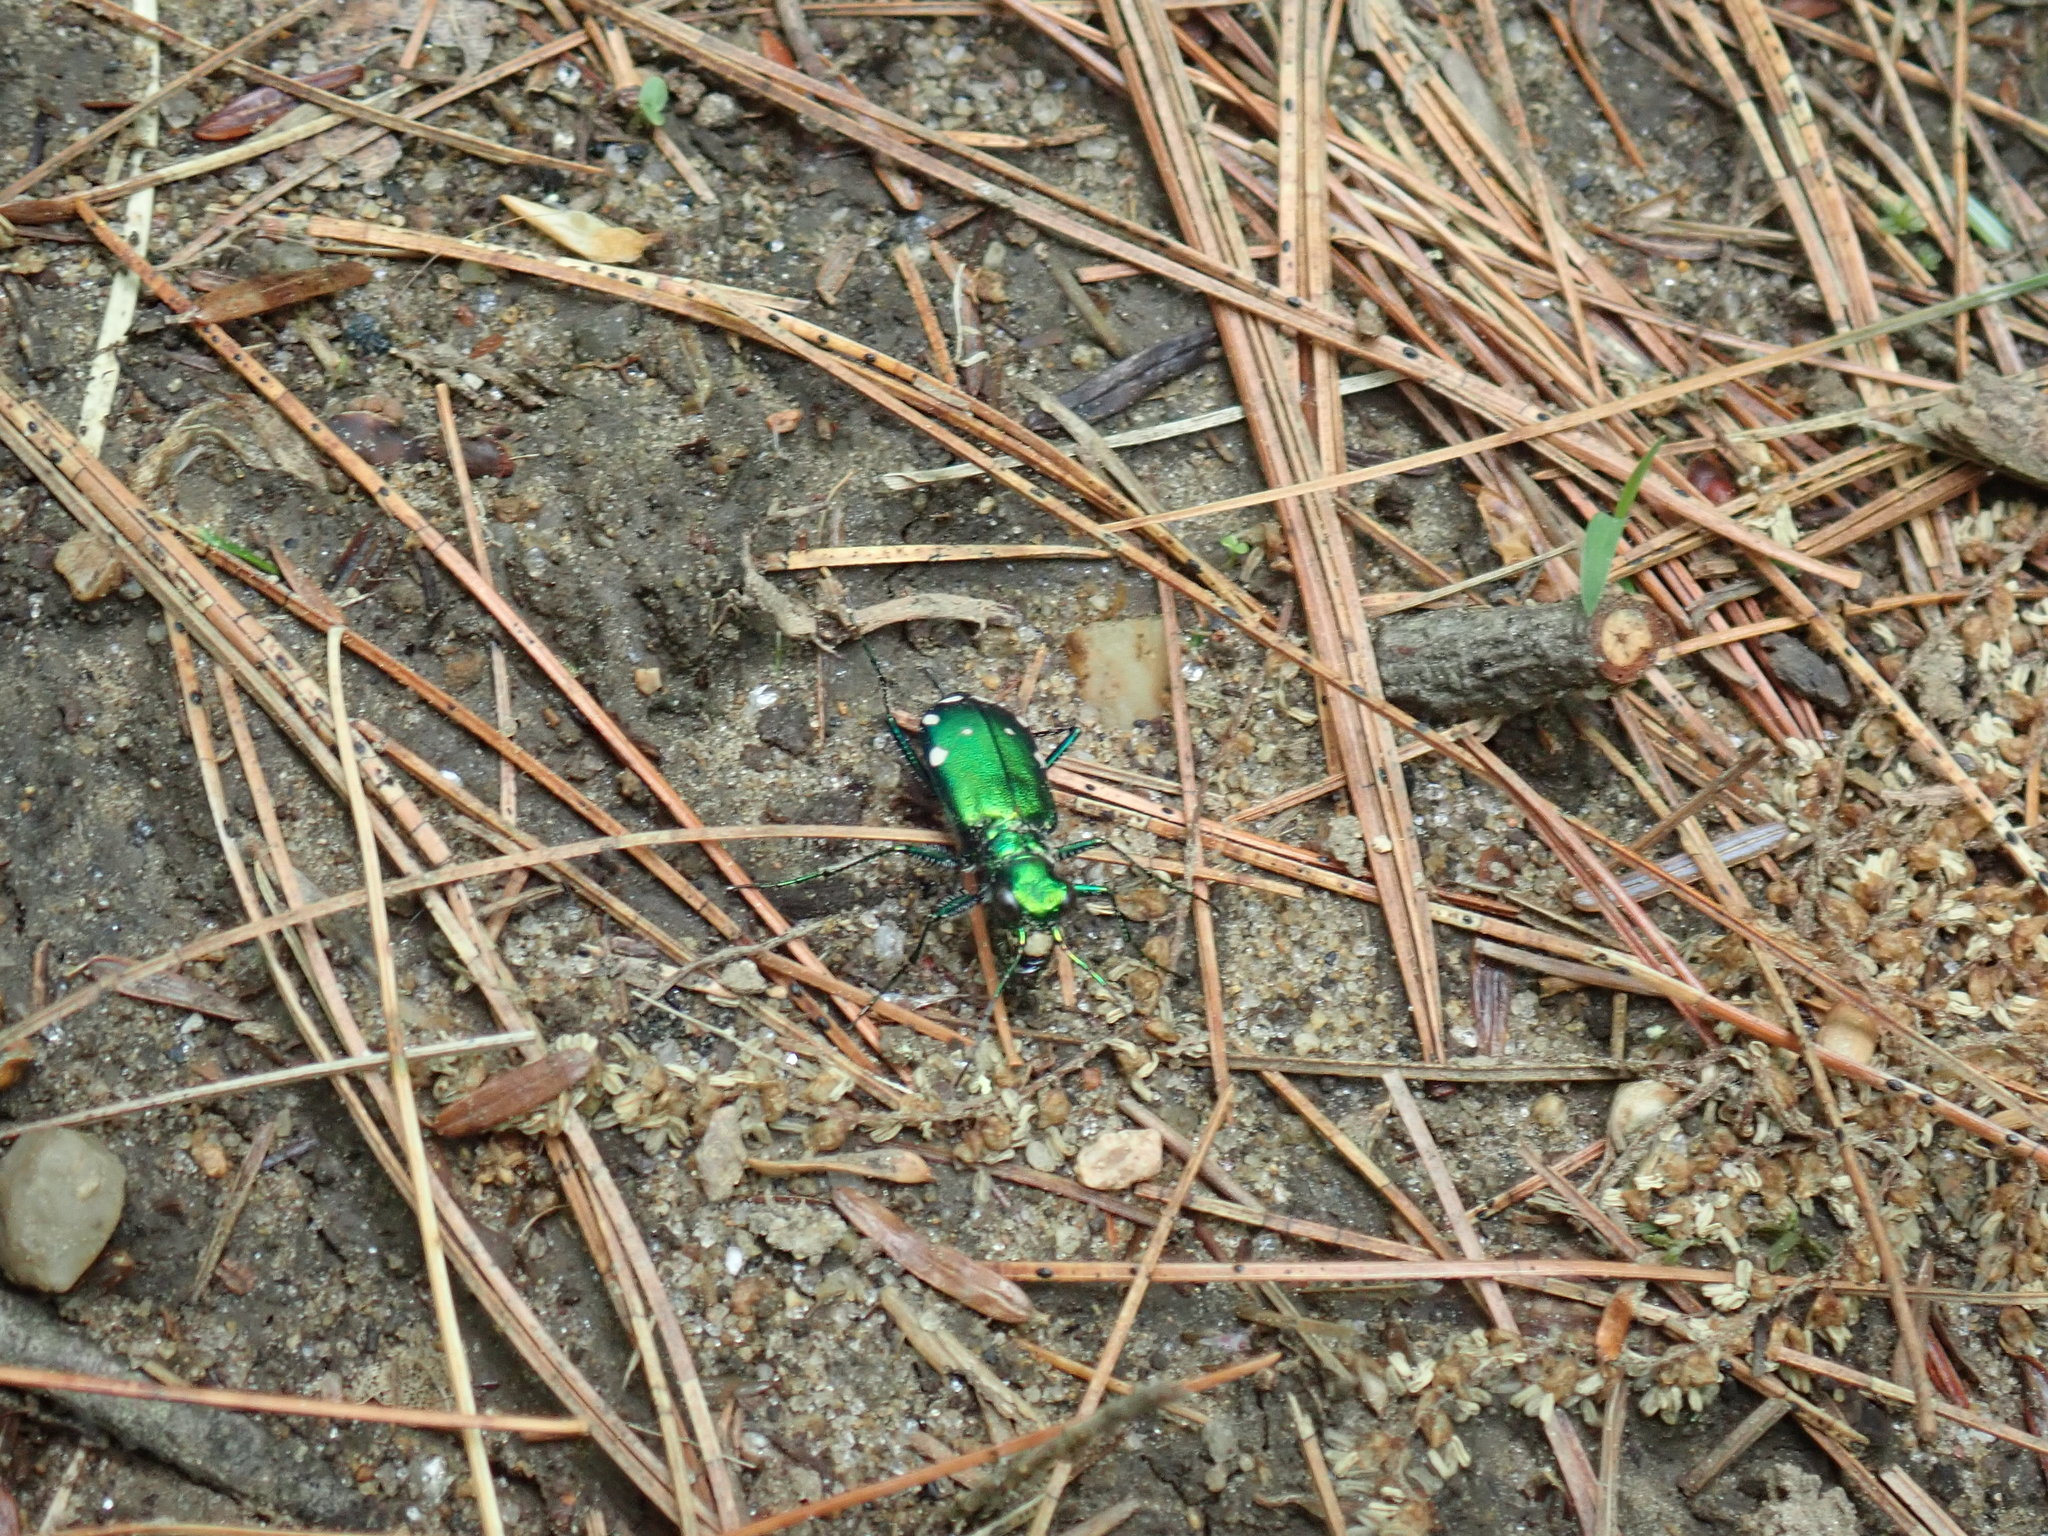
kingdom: Animalia
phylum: Arthropoda
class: Insecta
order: Coleoptera
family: Carabidae
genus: Cicindela
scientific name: Cicindela sexguttata
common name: Six-spotted tiger beetle
